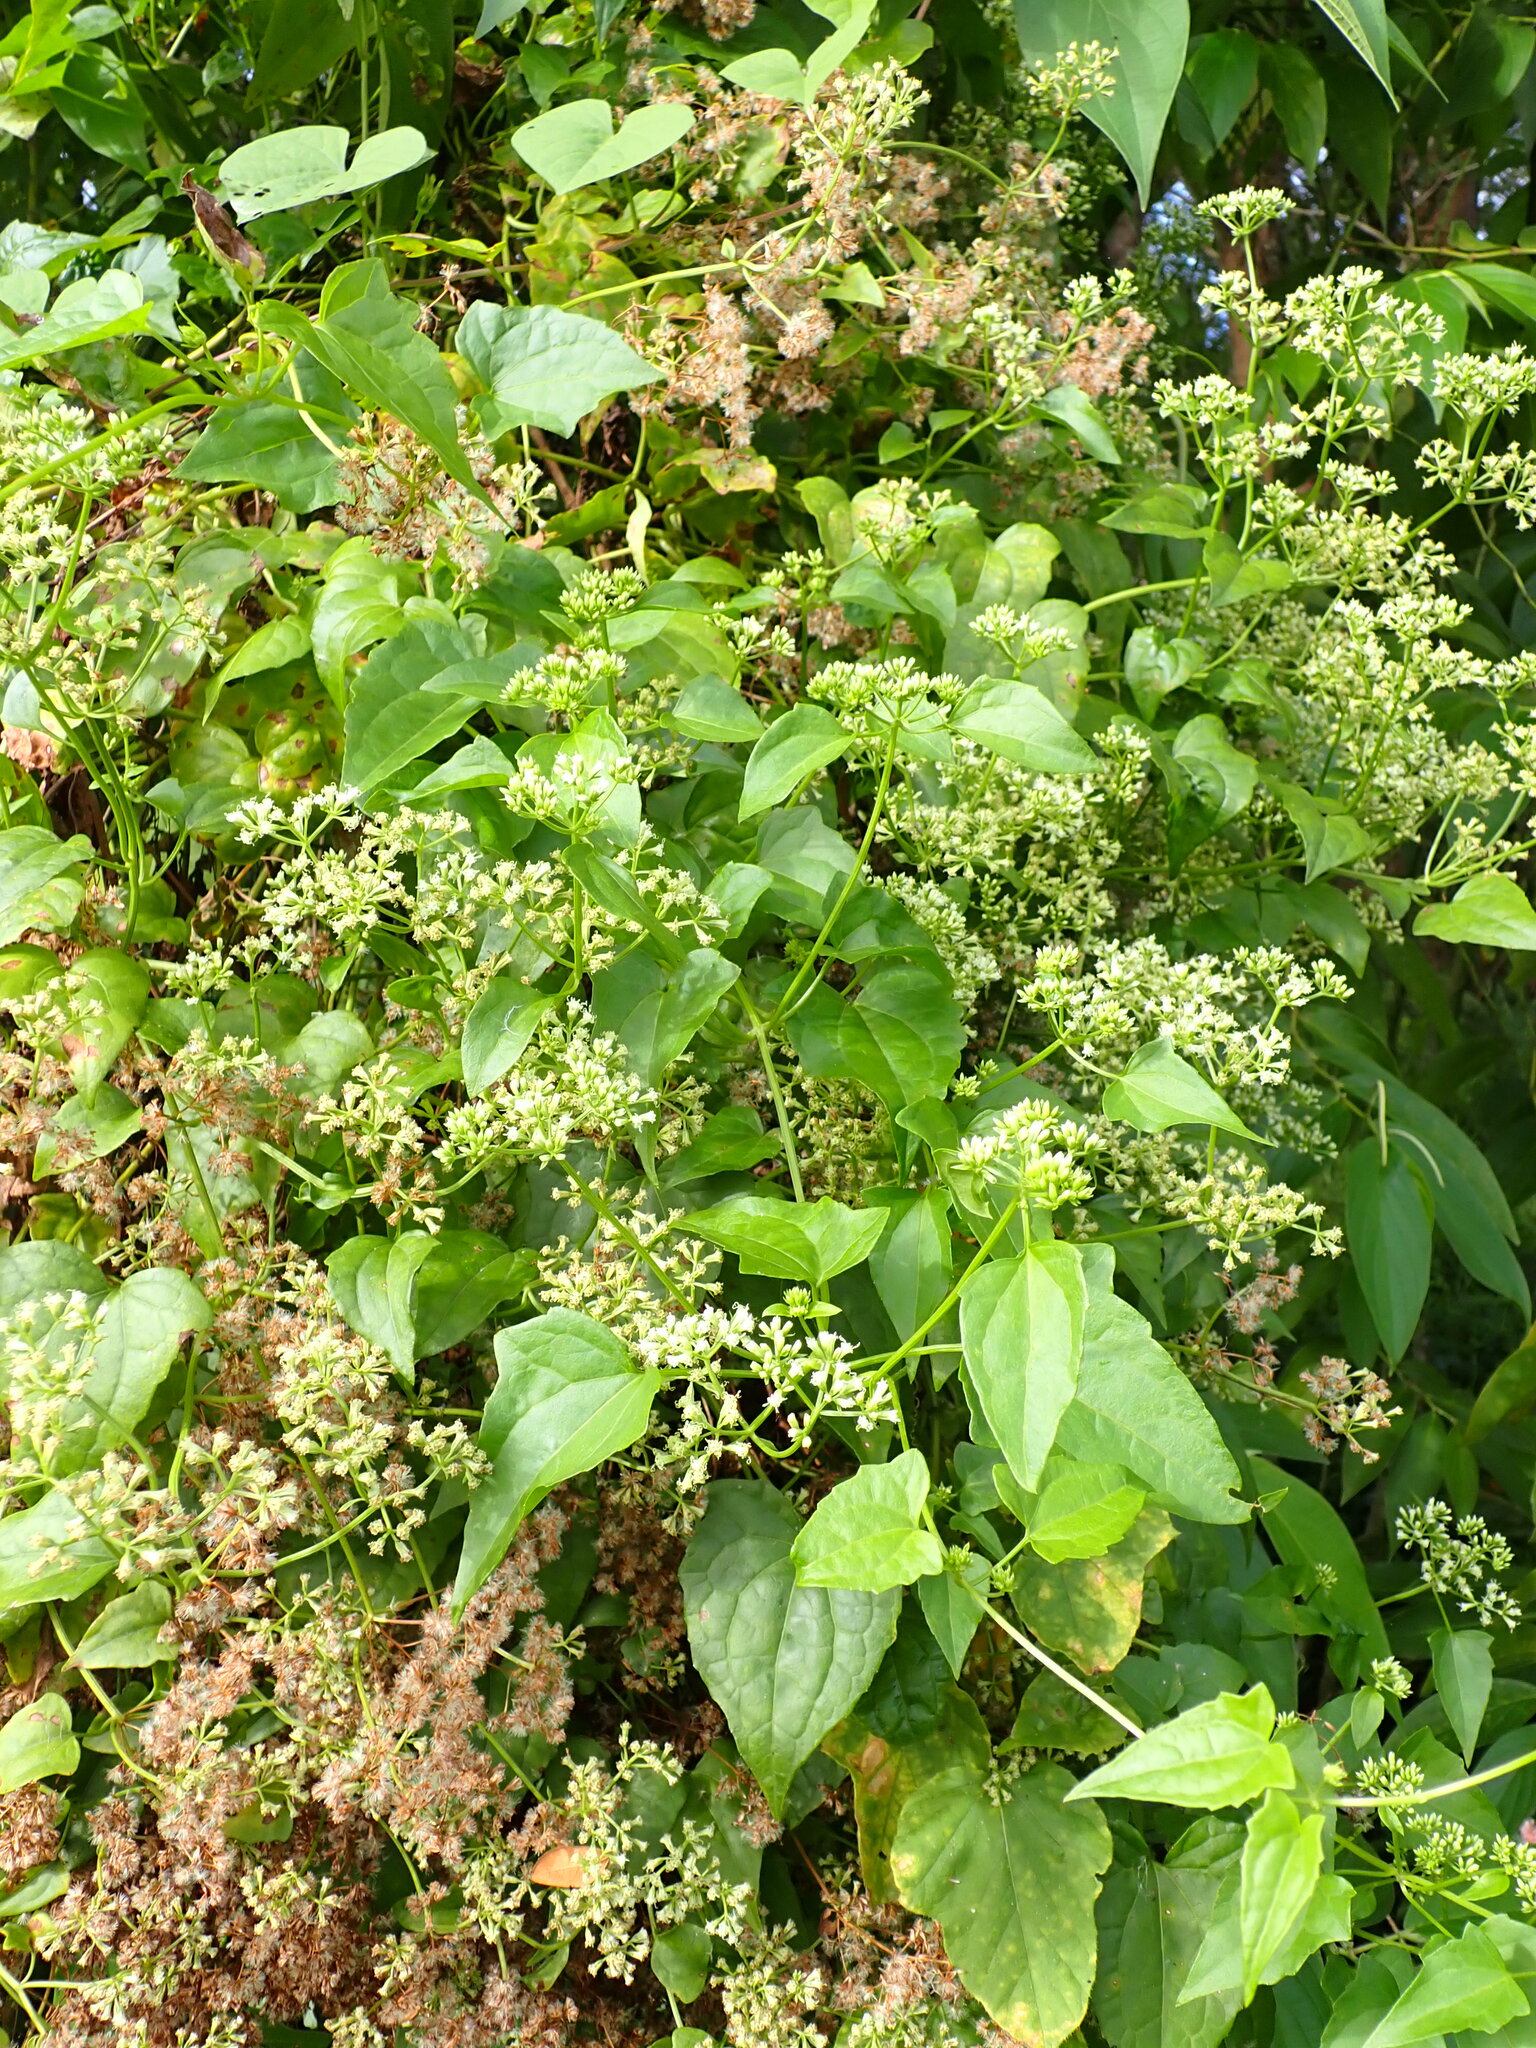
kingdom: Plantae
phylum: Tracheophyta
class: Magnoliopsida
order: Asterales
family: Asteraceae
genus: Mikania
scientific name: Mikania micrantha
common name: Mile-a-minute
